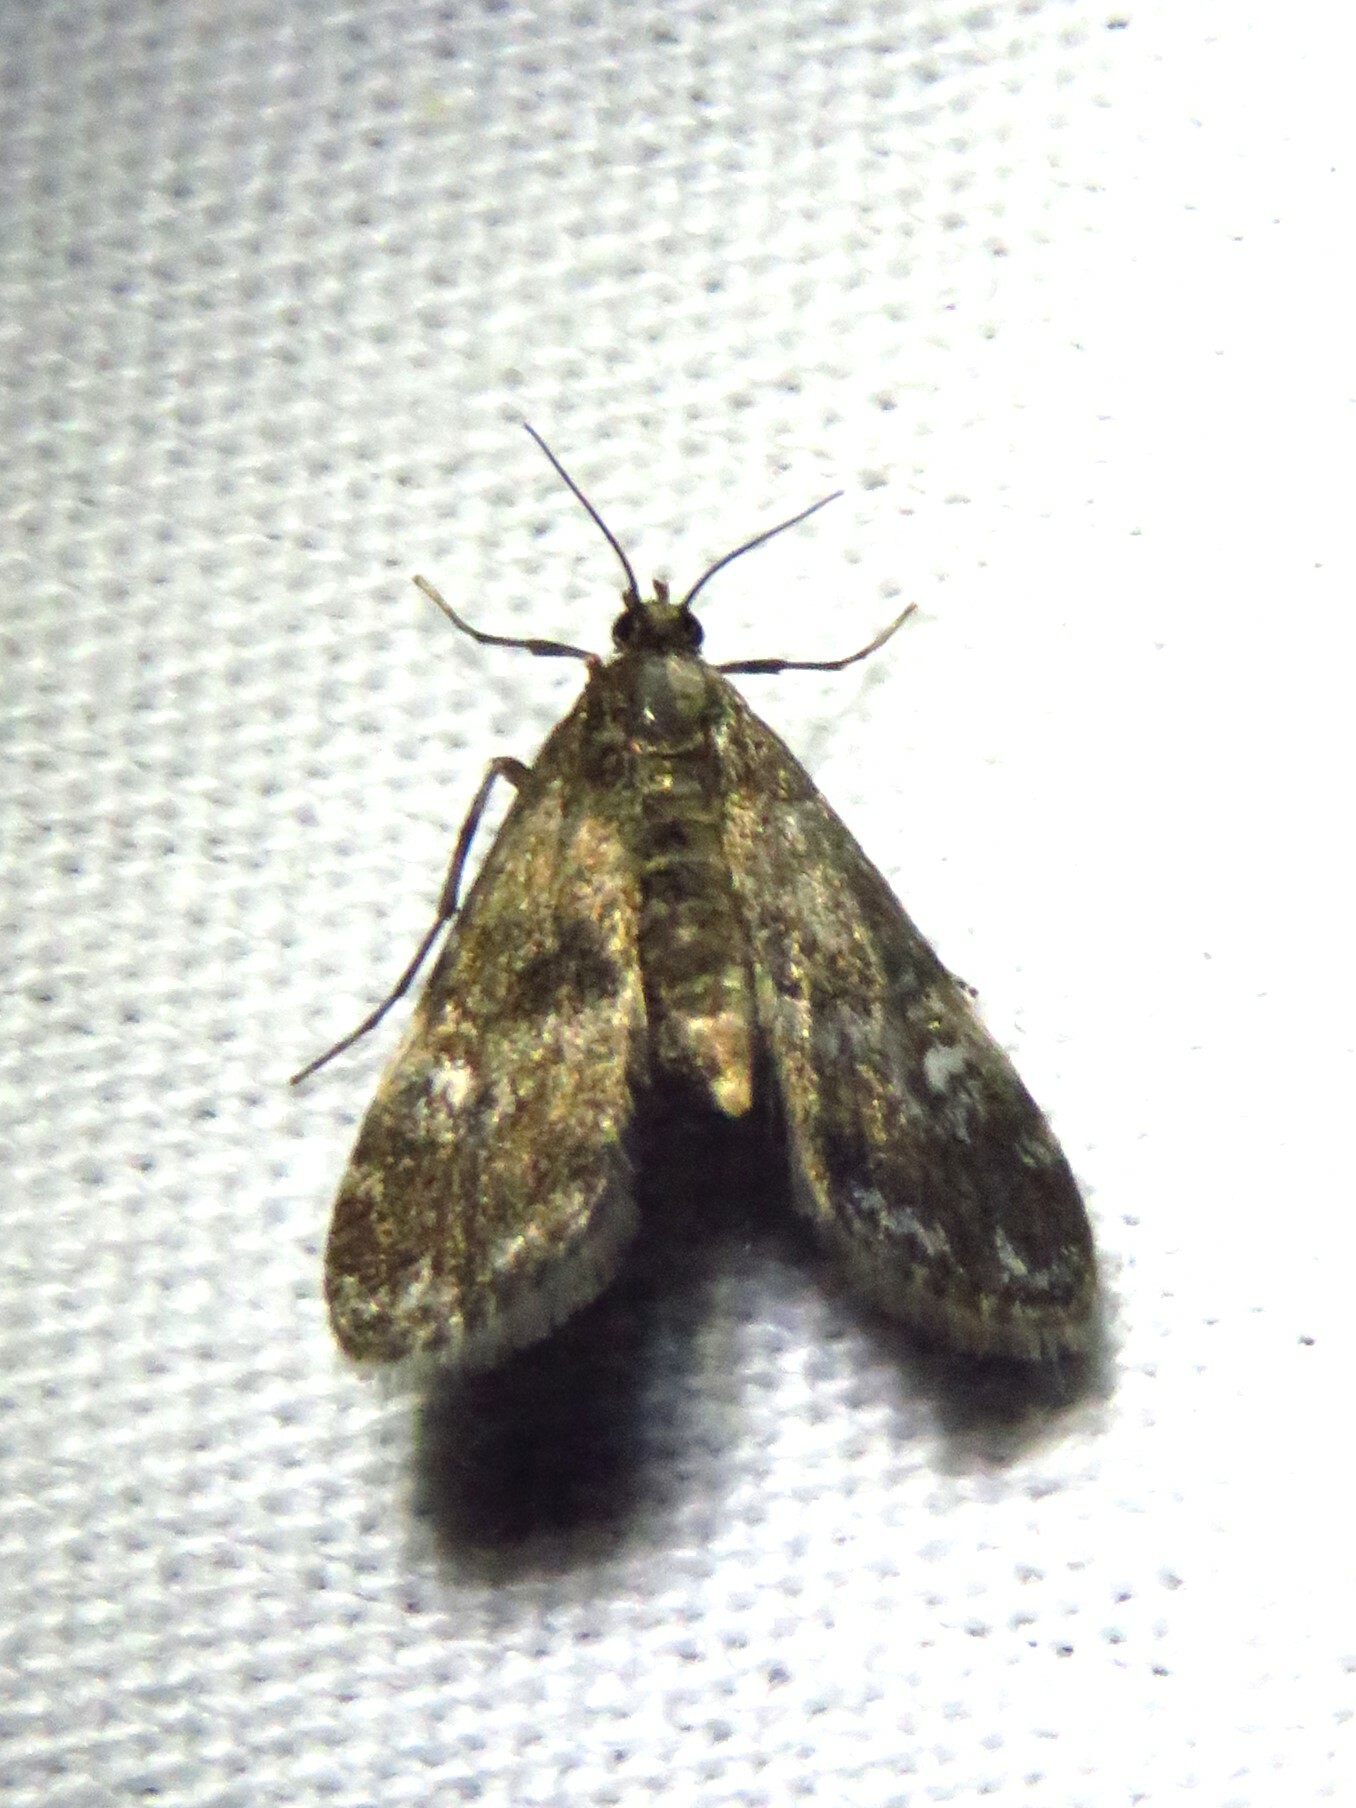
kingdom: Animalia
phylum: Arthropoda
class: Insecta
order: Lepidoptera
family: Crambidae
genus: Elophila
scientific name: Elophila obliteralis
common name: Waterlily leafcutter moth
